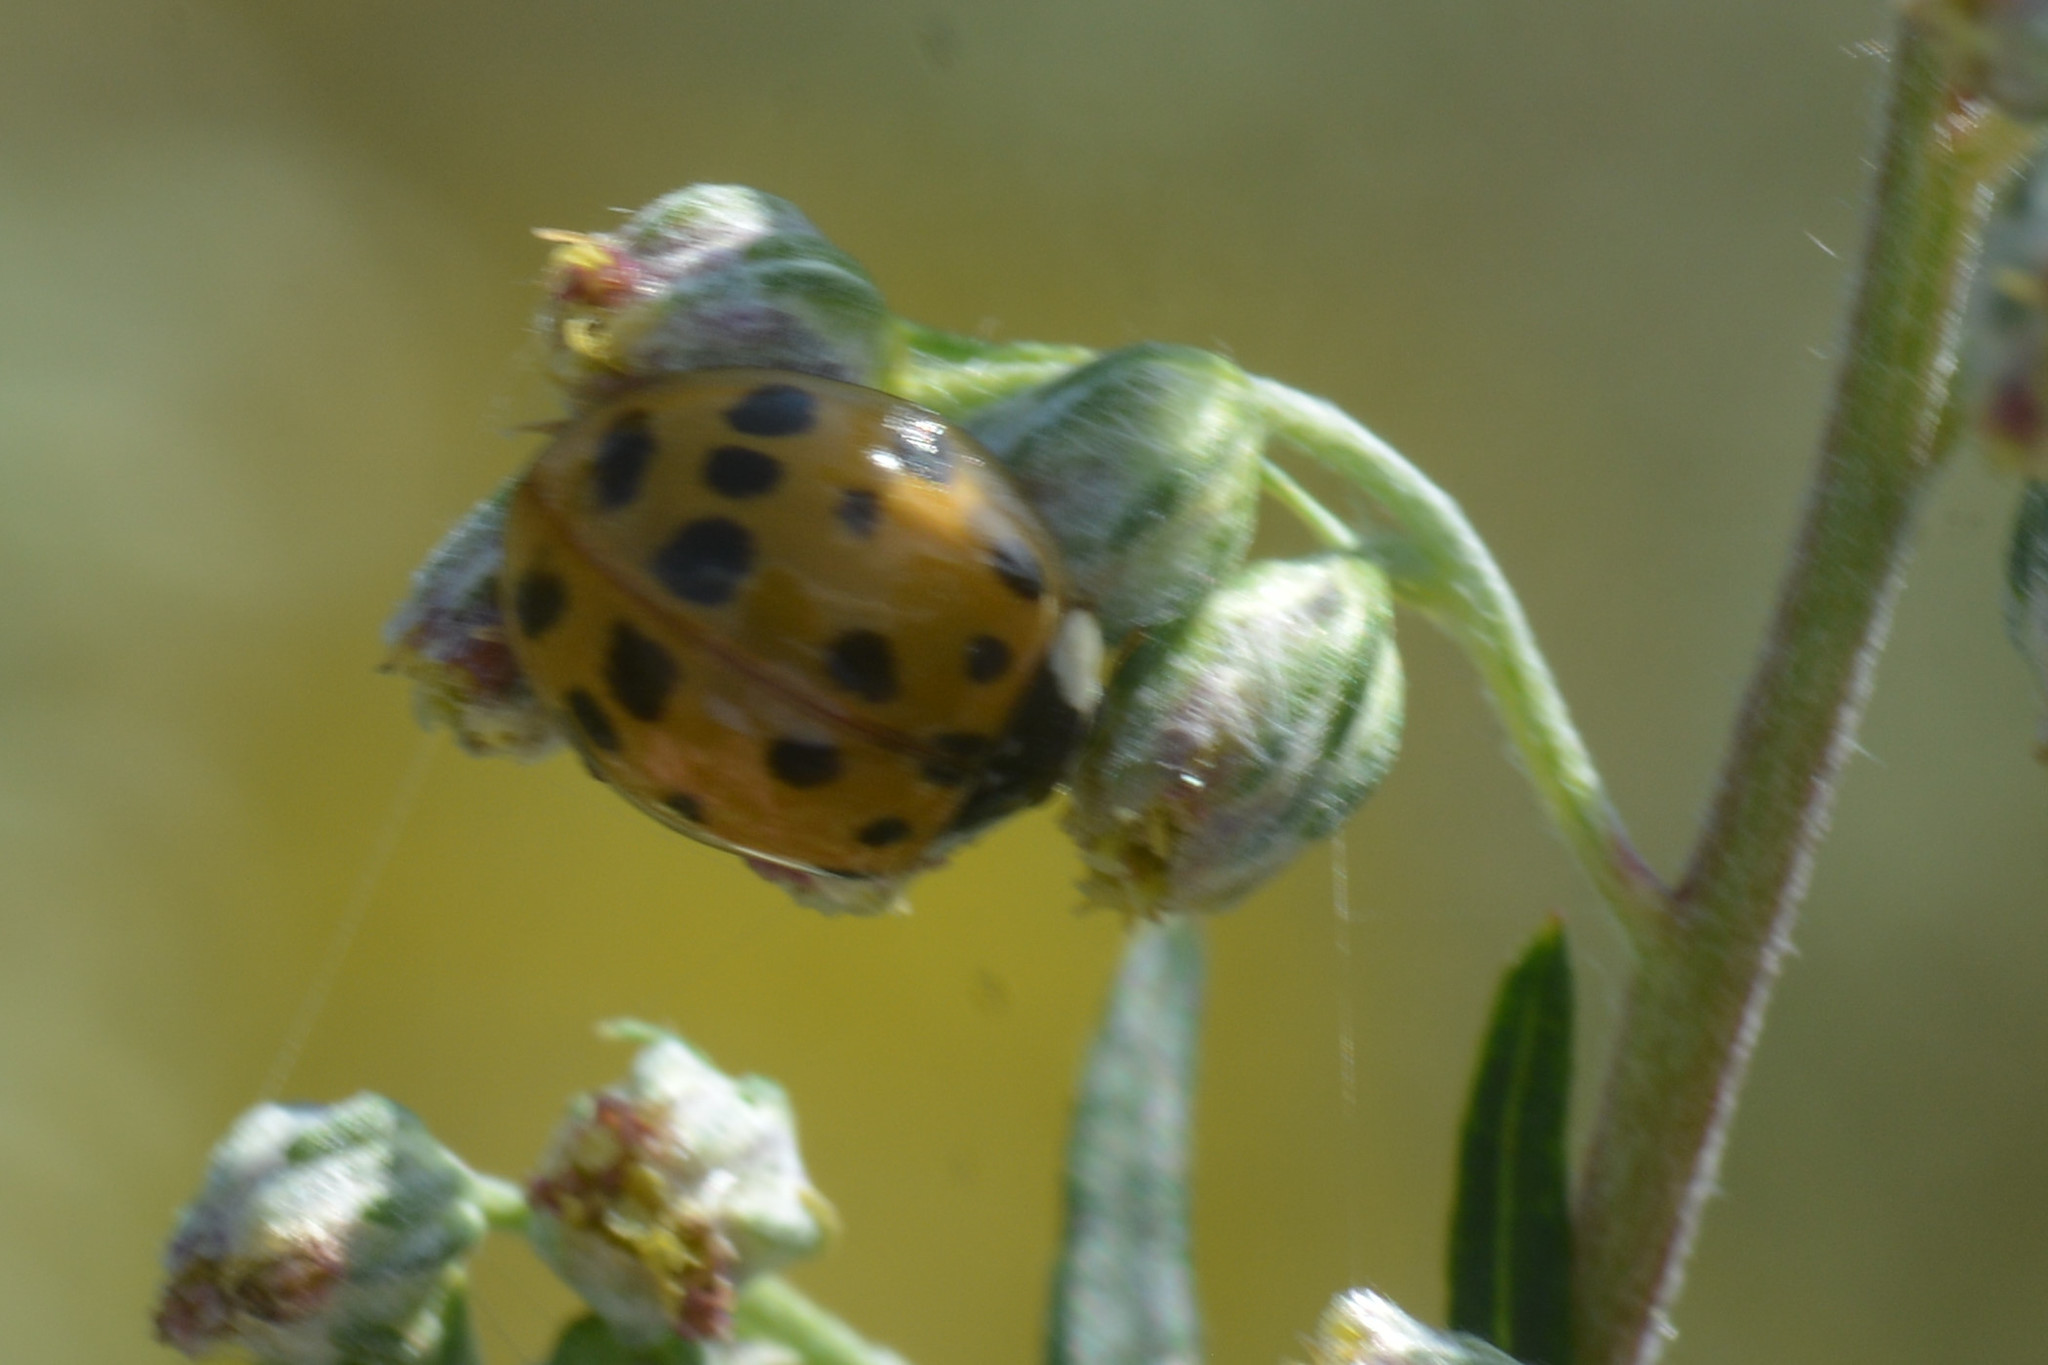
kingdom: Animalia
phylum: Arthropoda
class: Insecta
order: Coleoptera
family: Coccinellidae
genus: Harmonia
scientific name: Harmonia axyridis
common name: Harlequin ladybird
